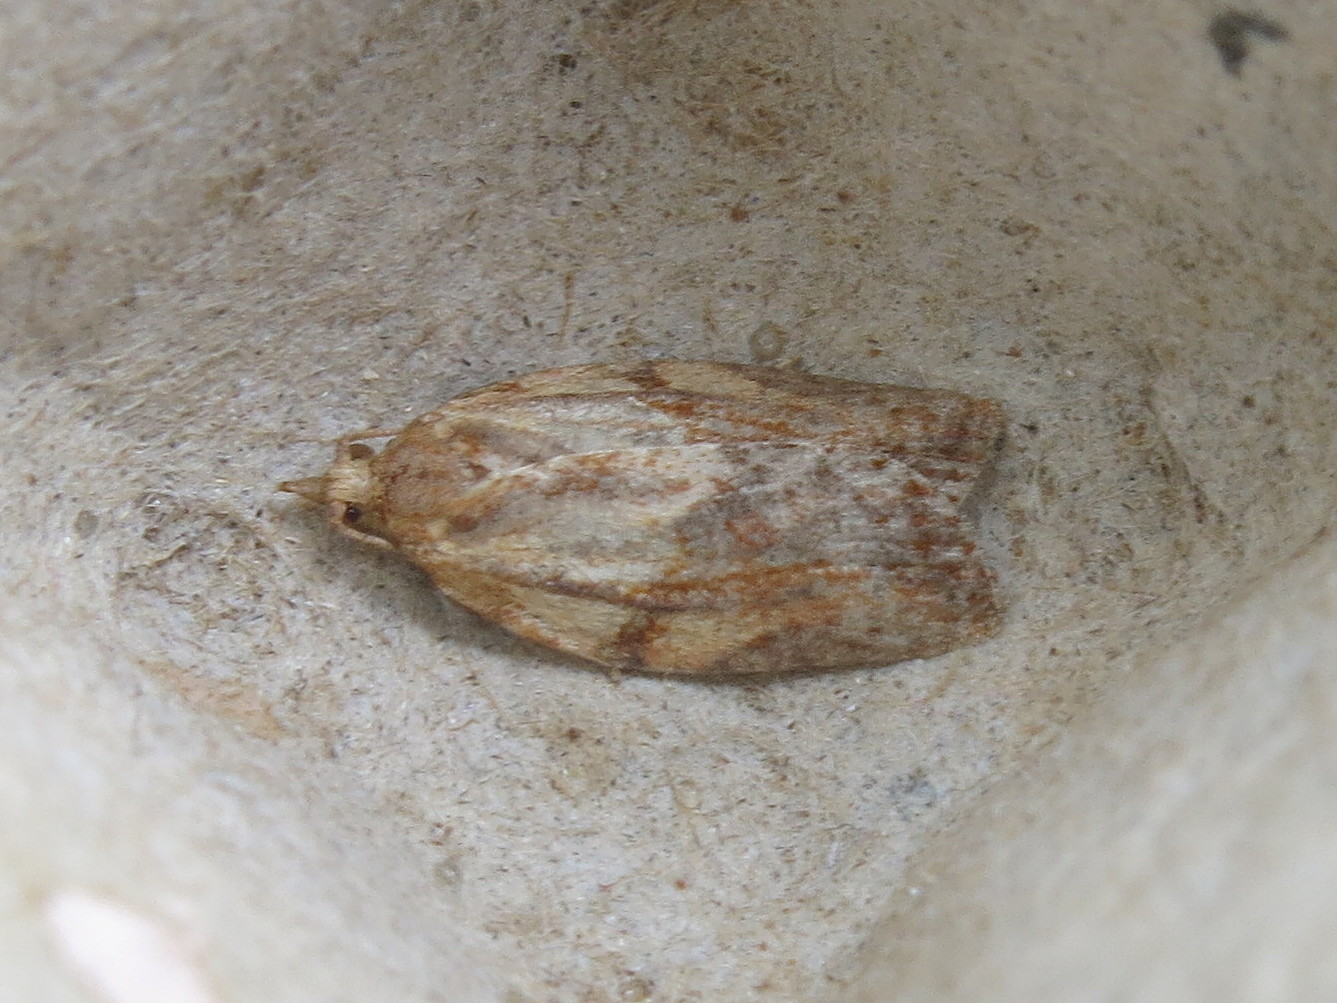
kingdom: Animalia
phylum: Arthropoda
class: Insecta
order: Lepidoptera
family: Tortricidae
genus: Epiphyas
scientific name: Epiphyas postvittana
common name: Light brown apple moth
